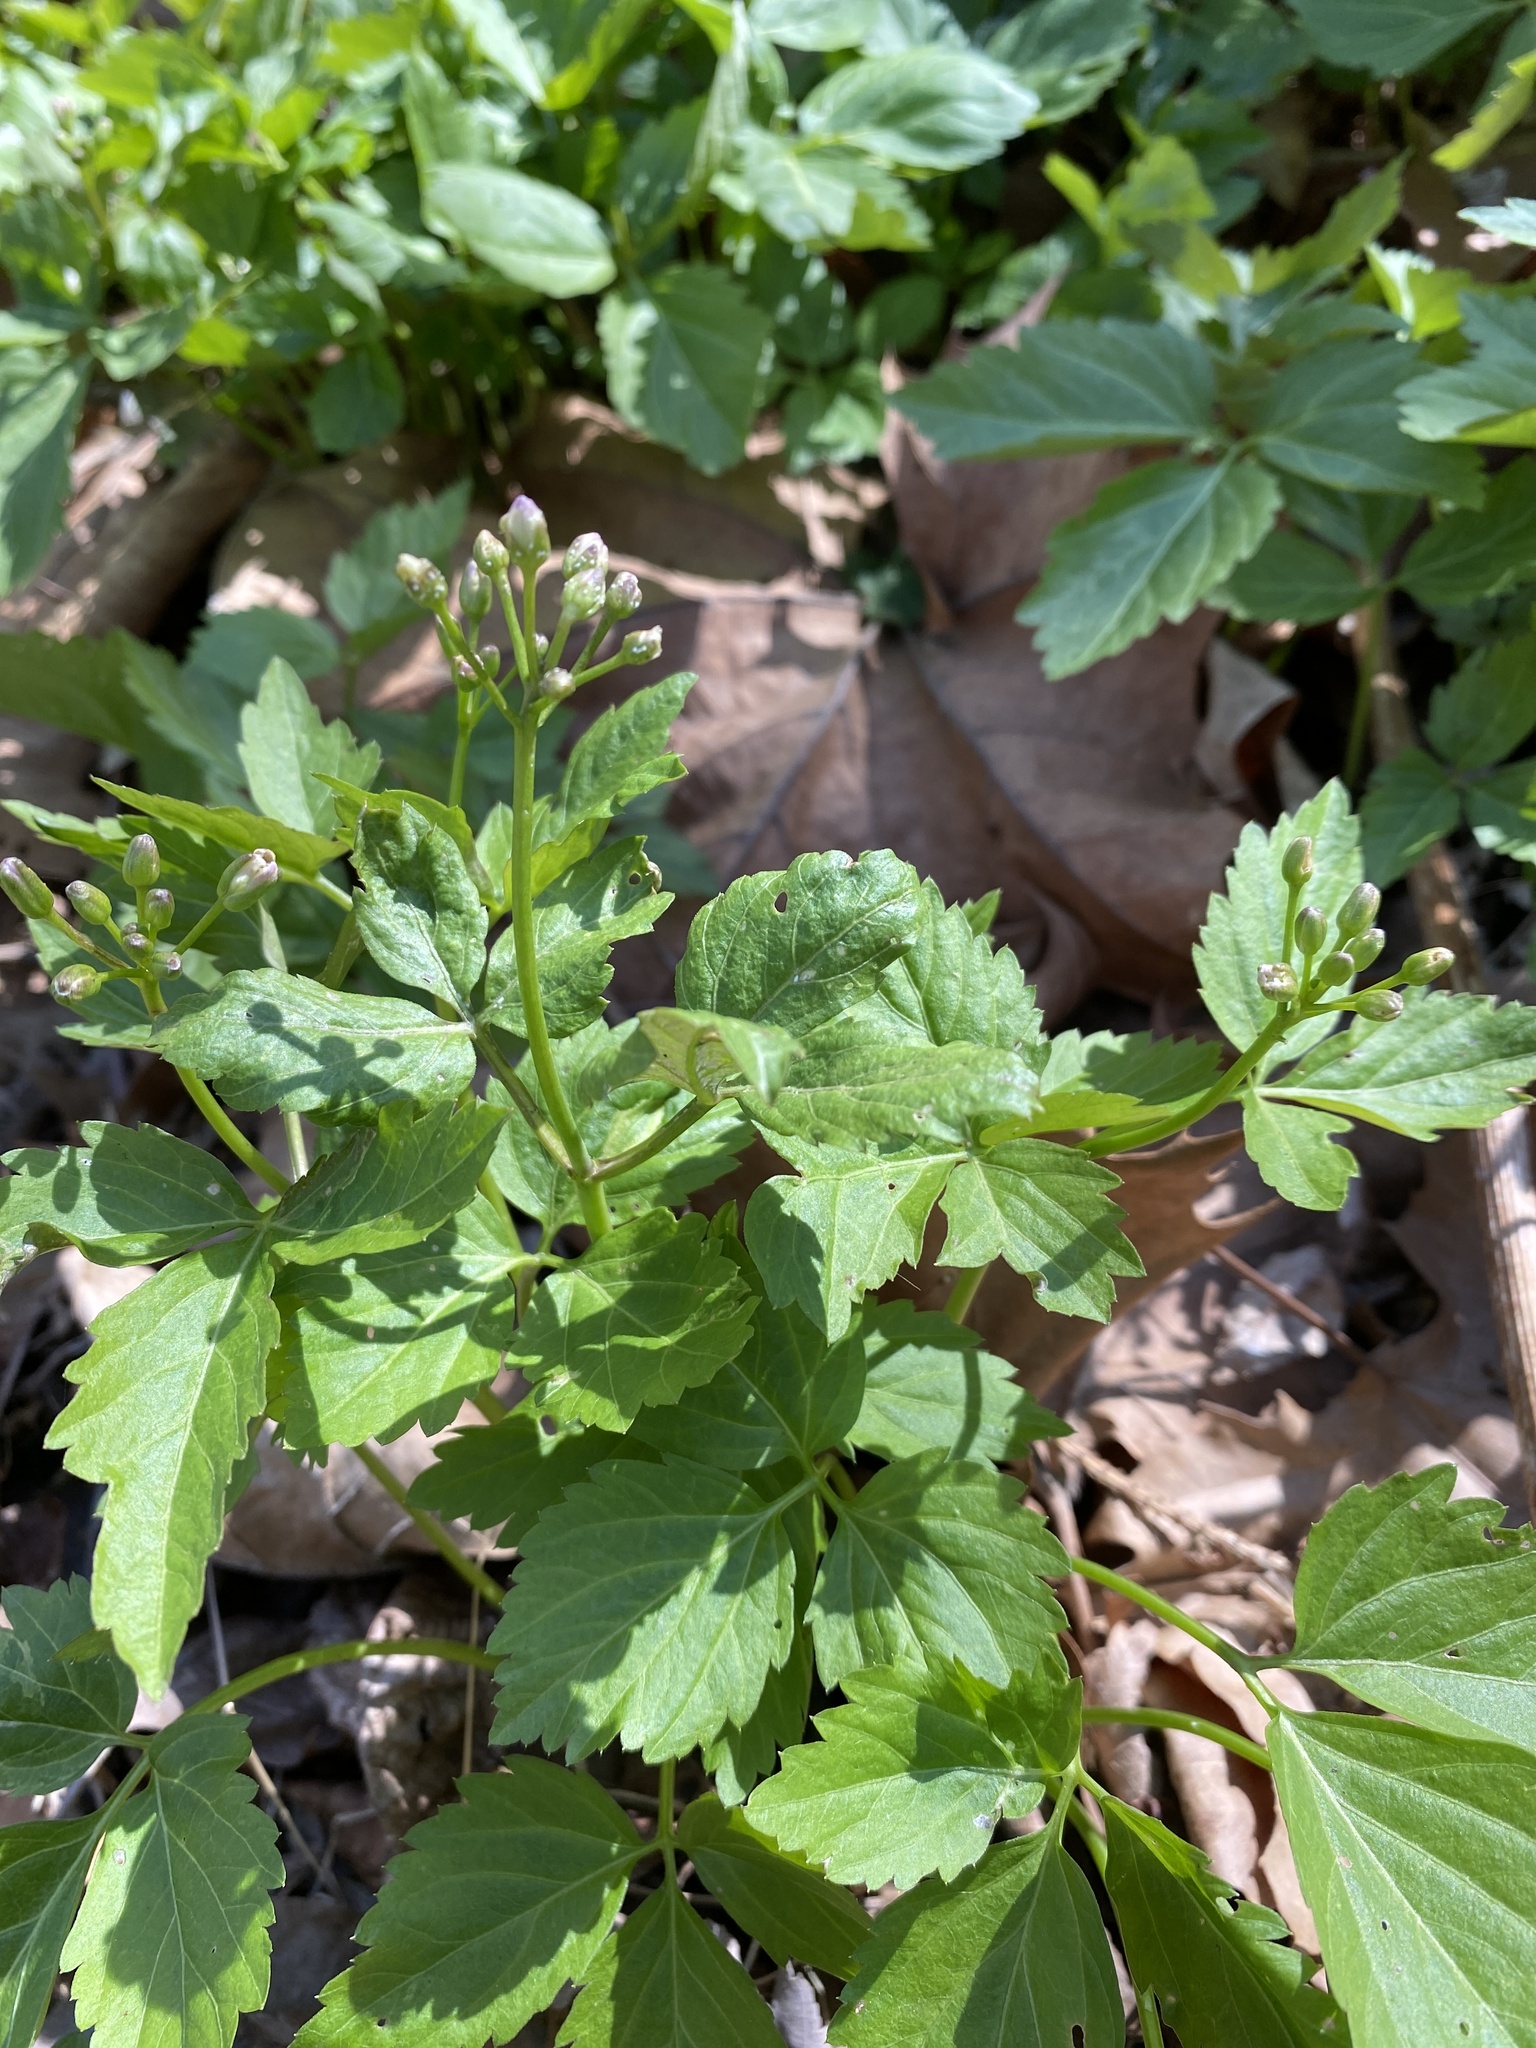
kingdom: Plantae
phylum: Tracheophyta
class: Magnoliopsida
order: Brassicales
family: Brassicaceae
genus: Cardamine
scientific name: Cardamine diphylla
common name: Broad-leaved toothwort
